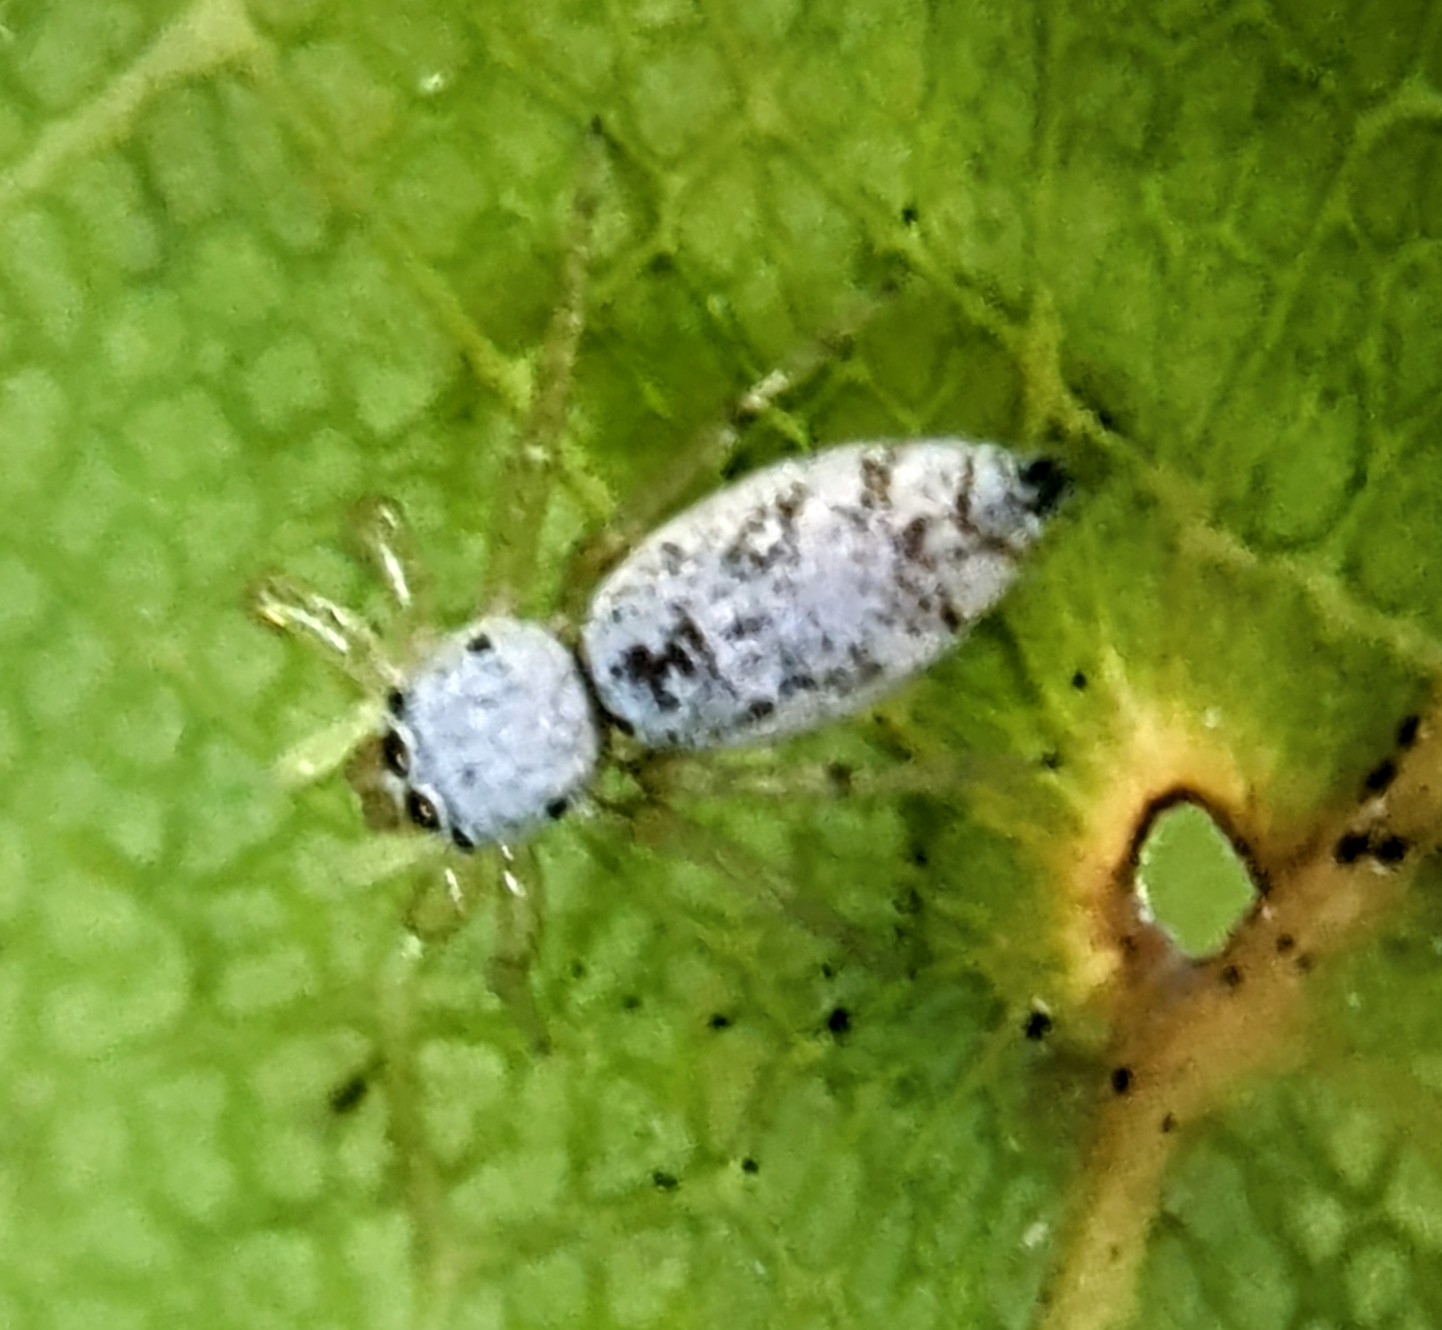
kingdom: Animalia
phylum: Arthropoda
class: Arachnida
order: Araneae
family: Salticidae
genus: Cosmophasis
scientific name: Cosmophasis lami
